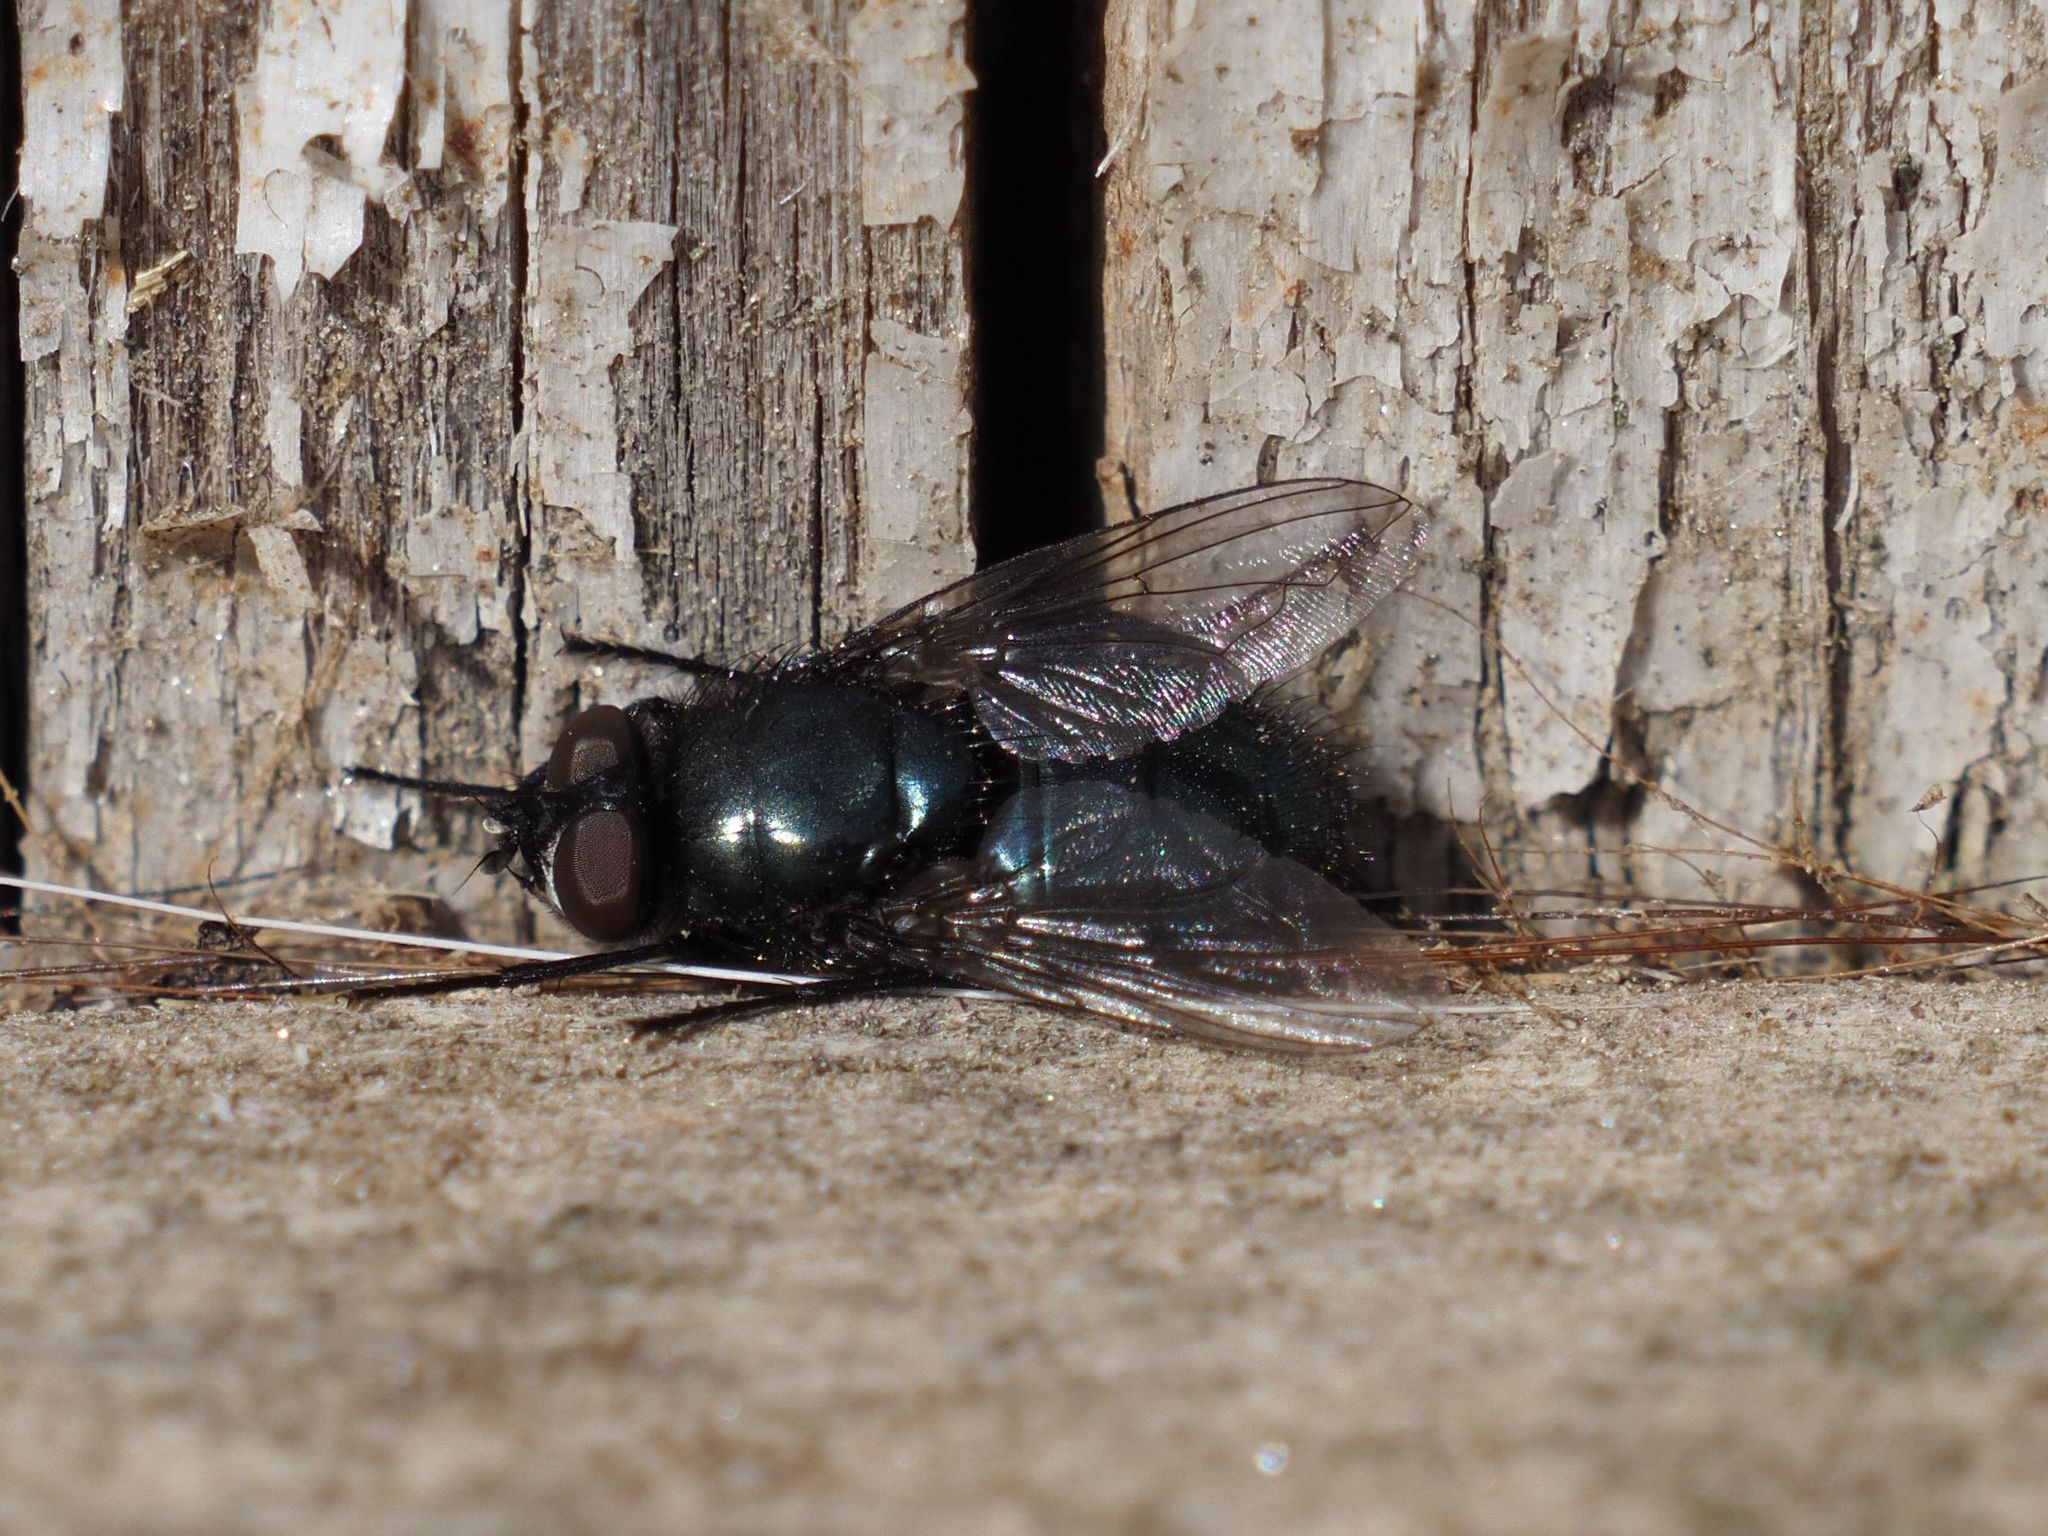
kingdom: Animalia
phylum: Arthropoda
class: Insecta
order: Diptera
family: Calliphoridae
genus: Protophormia
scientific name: Protophormia terraenovae
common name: Blackbottle
